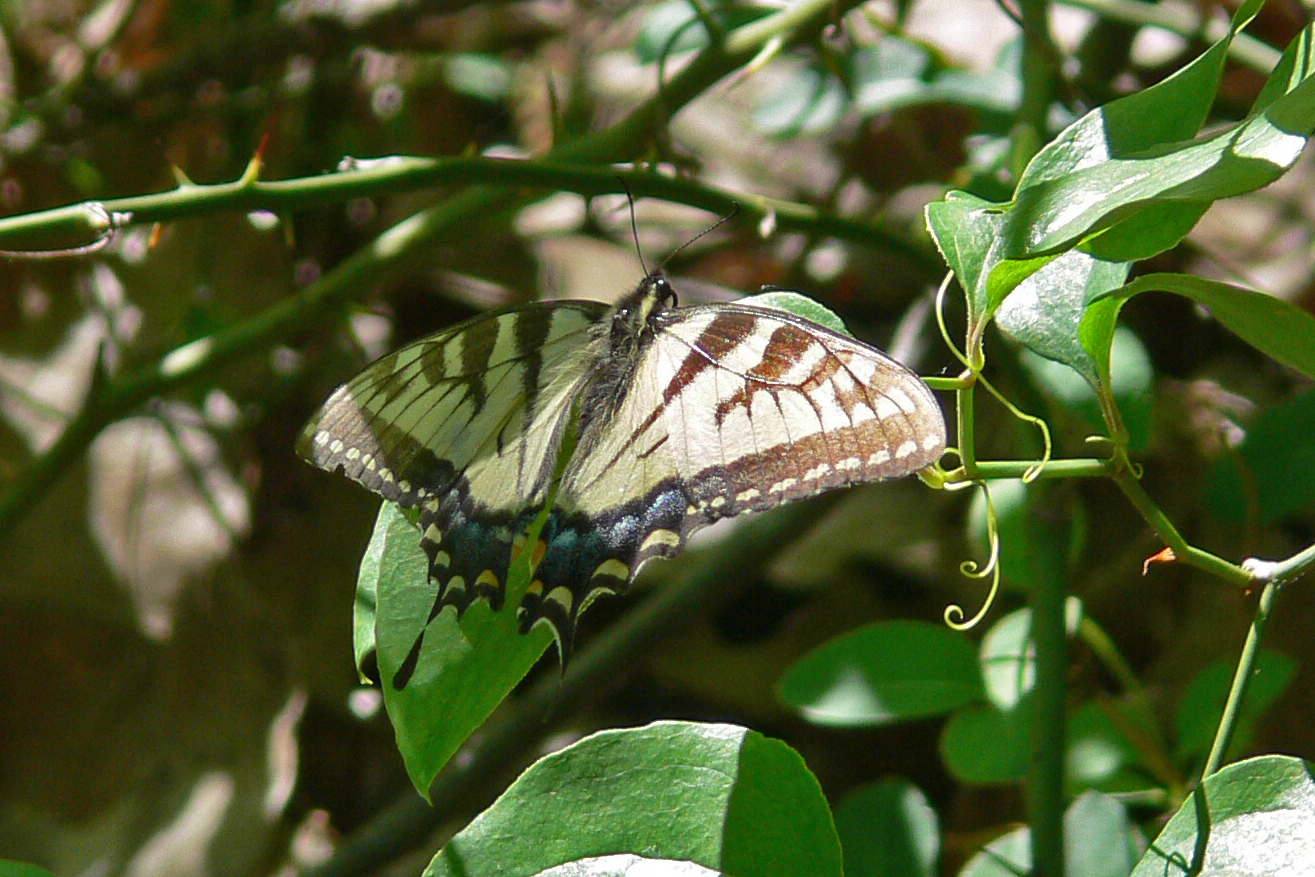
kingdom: Animalia
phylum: Arthropoda
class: Insecta
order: Lepidoptera
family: Papilionidae
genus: Papilio
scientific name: Papilio glaucus
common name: Tiger swallowtail
